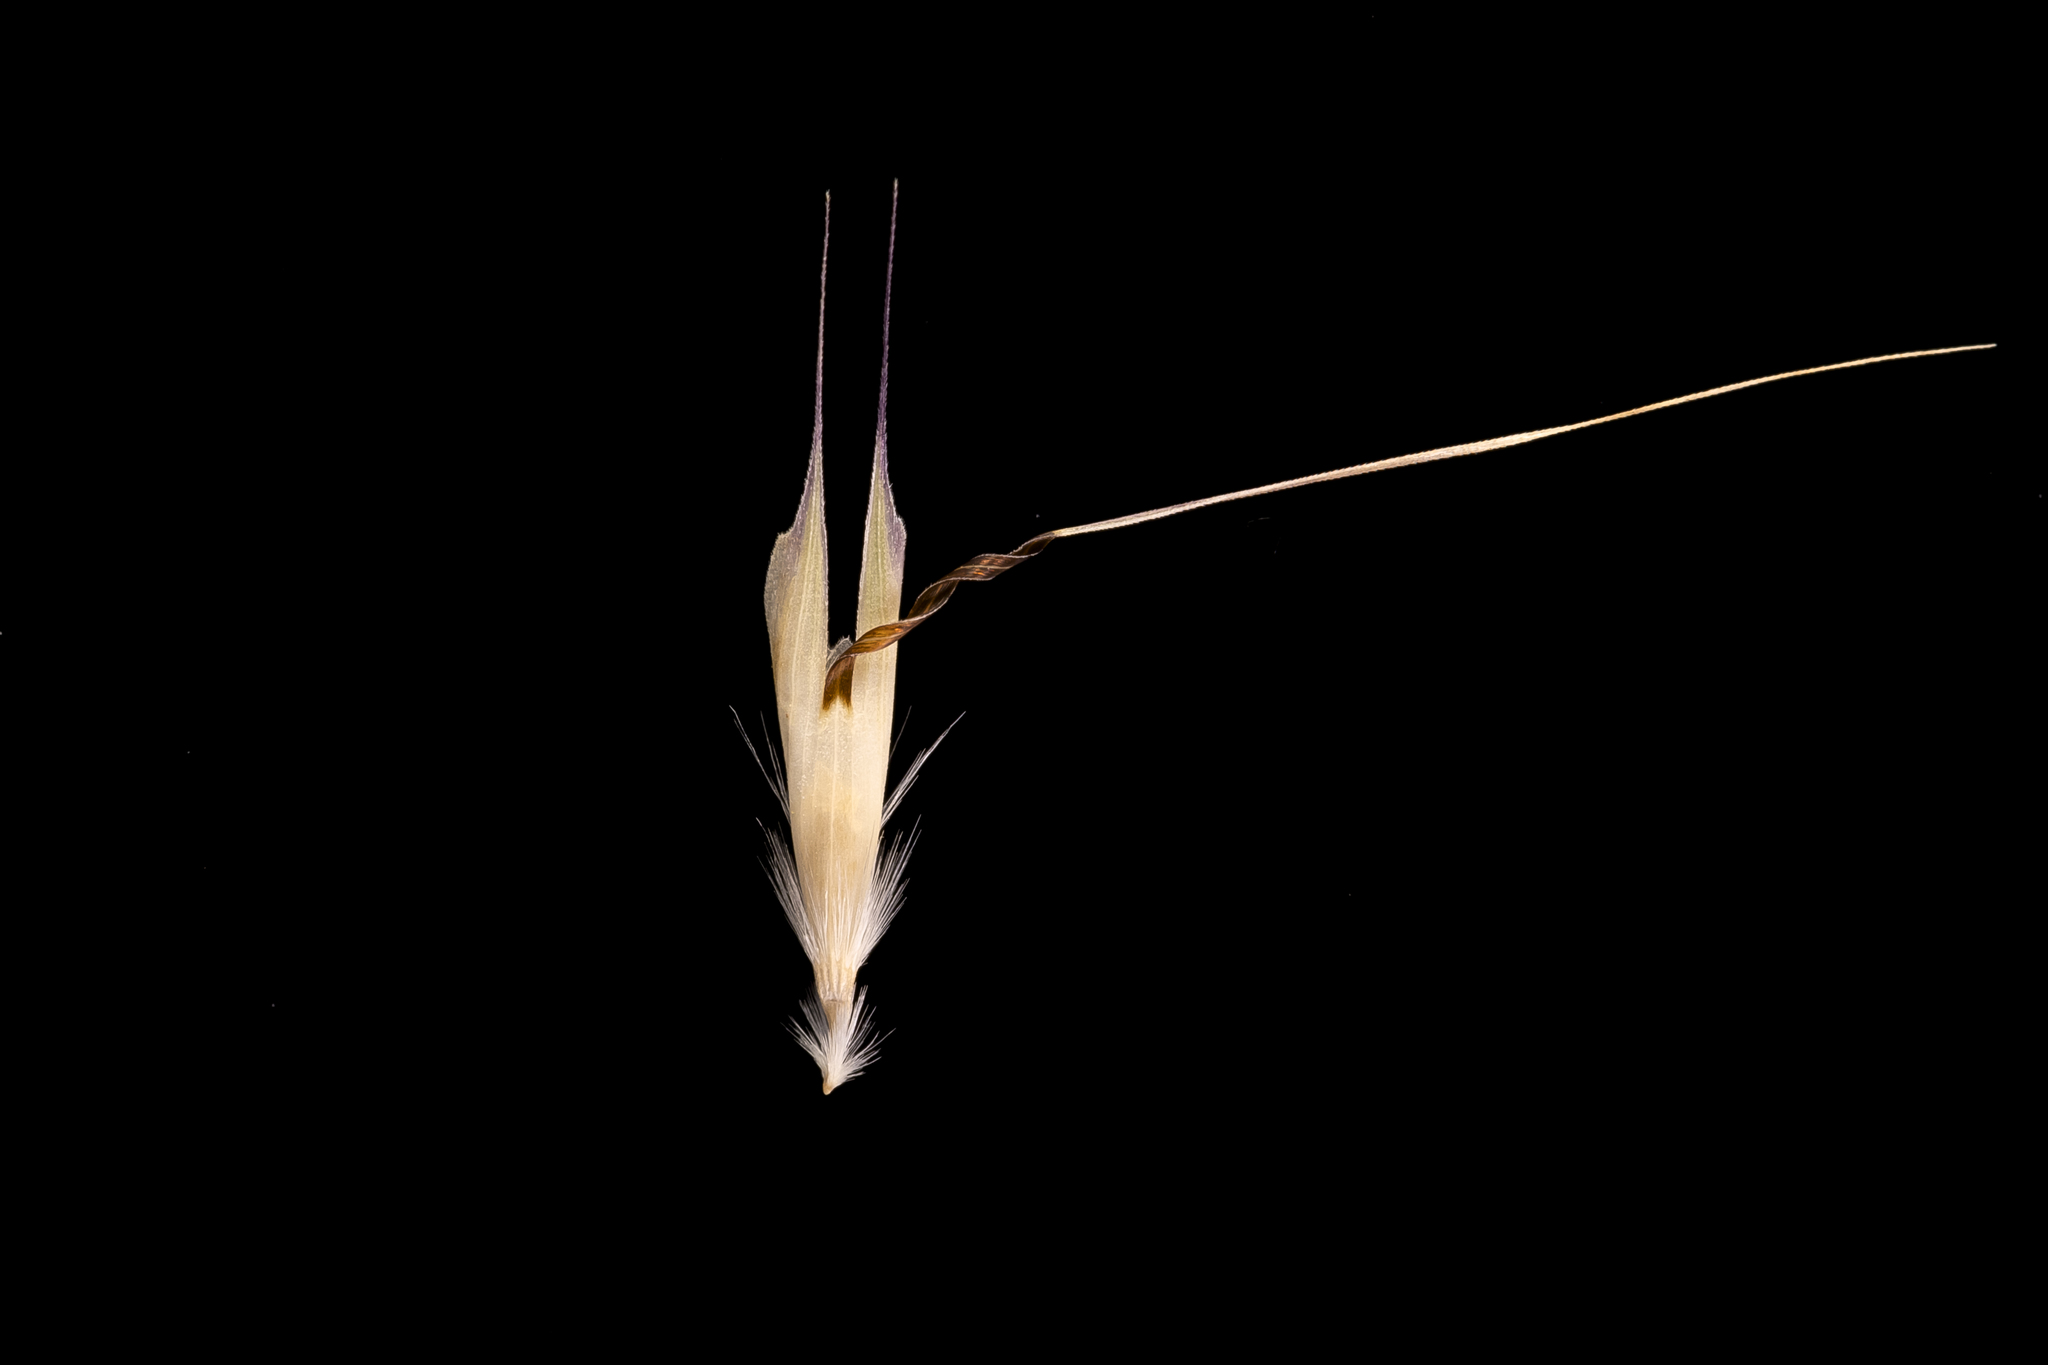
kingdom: Plantae
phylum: Tracheophyta
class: Liliopsida
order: Poales
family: Poaceae
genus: Rytidosperma
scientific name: Rytidosperma racemosum
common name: Wallaby-grass
